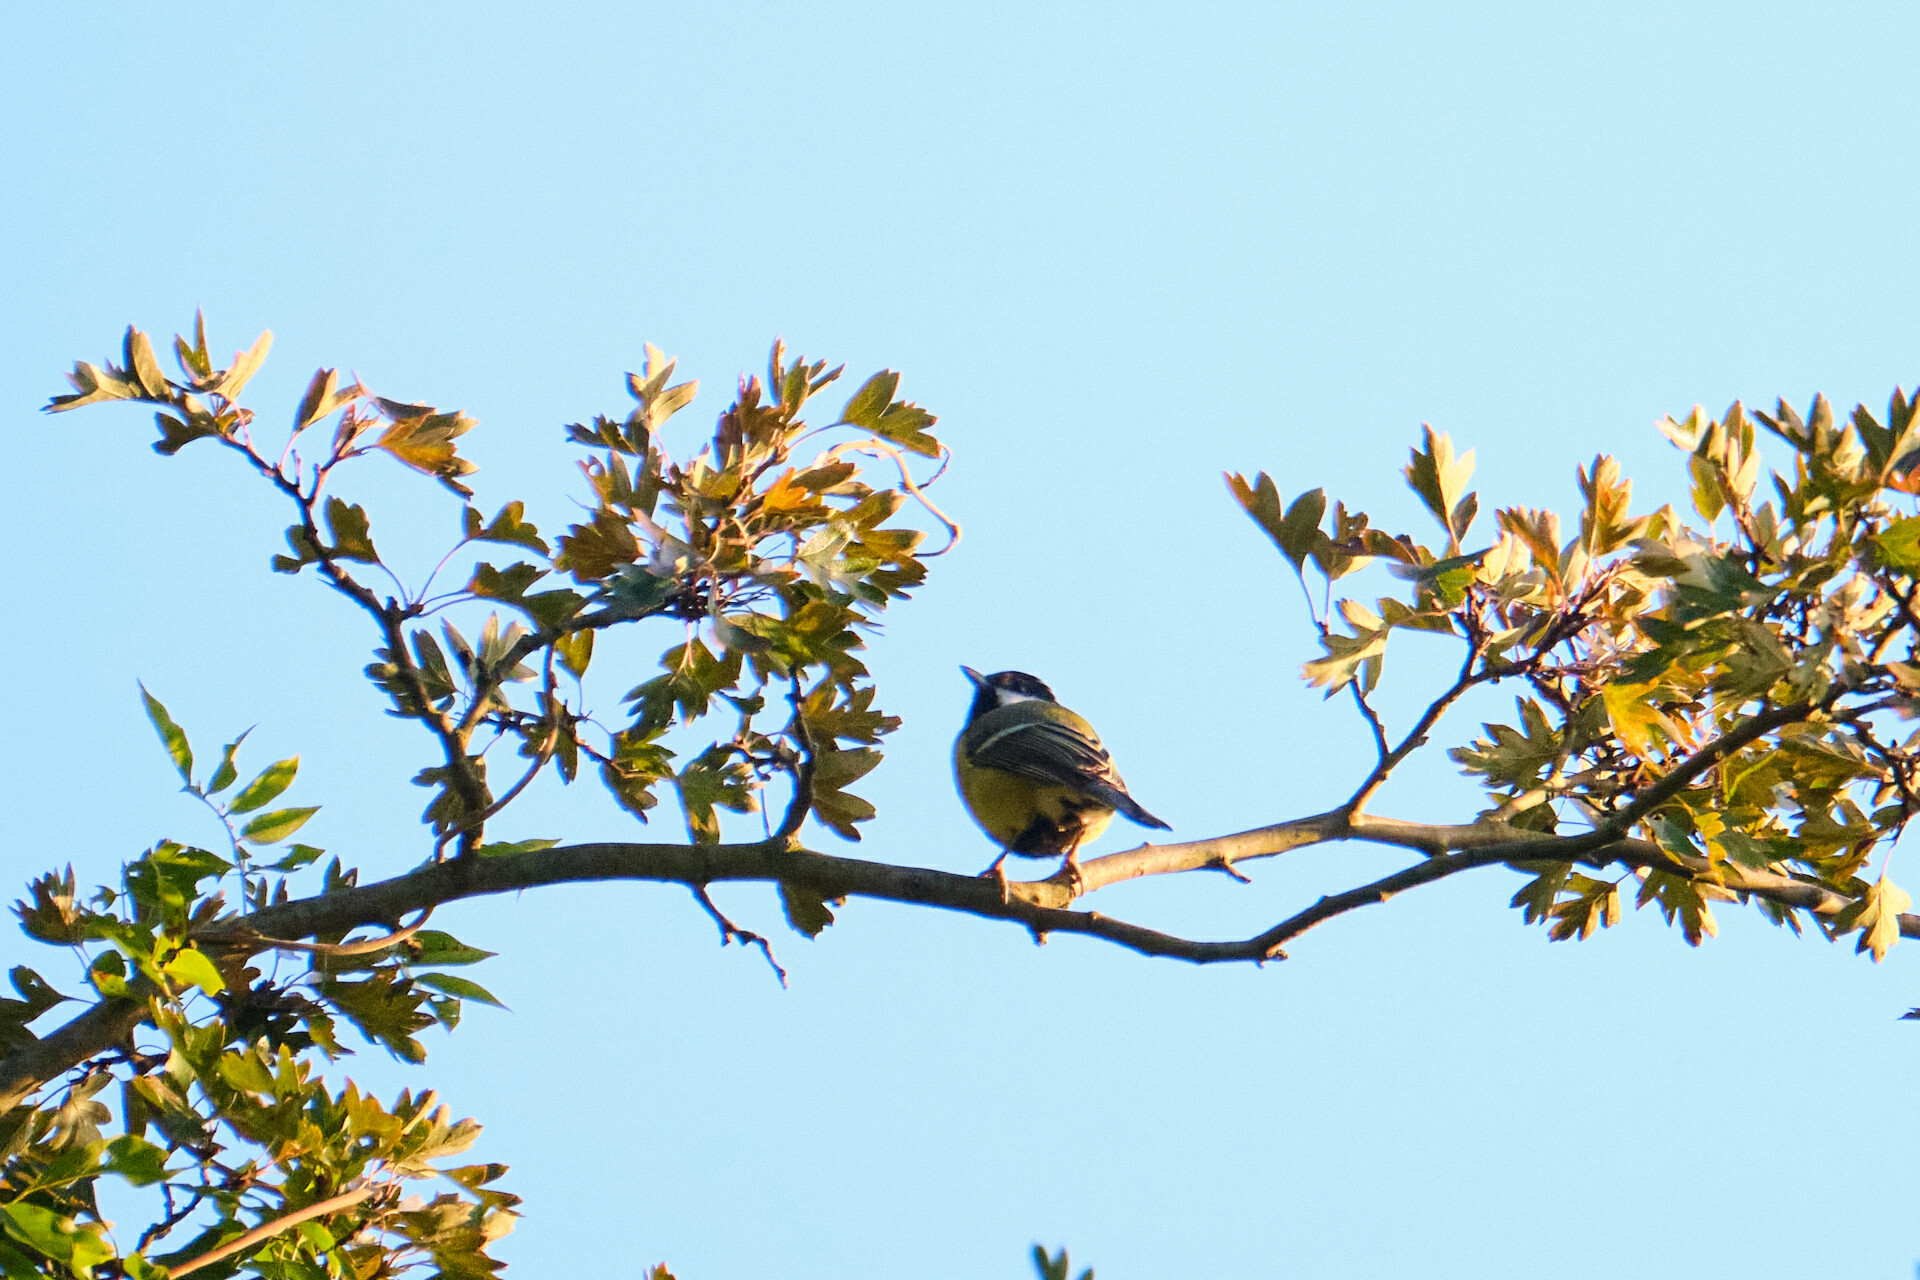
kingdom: Animalia
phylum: Chordata
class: Aves
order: Passeriformes
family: Paridae
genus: Parus
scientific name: Parus major
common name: Great tit
